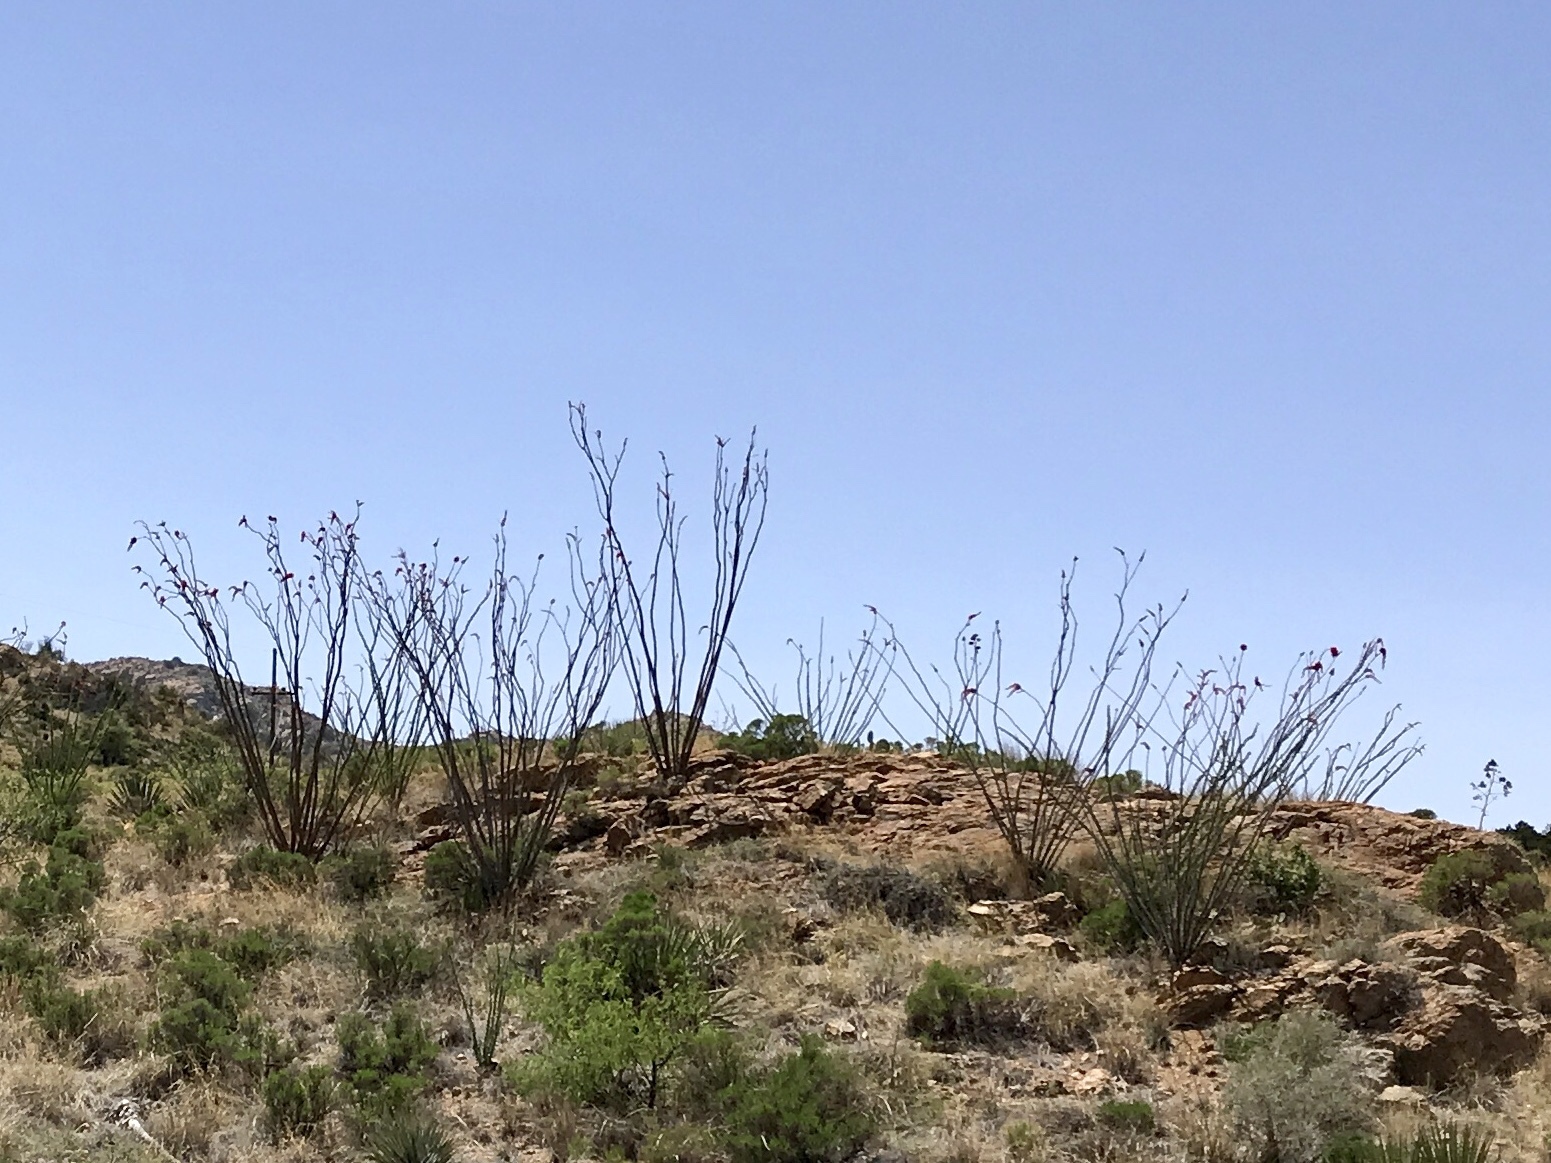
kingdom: Plantae
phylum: Tracheophyta
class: Magnoliopsida
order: Ericales
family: Fouquieriaceae
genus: Fouquieria
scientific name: Fouquieria splendens
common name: Vine-cactus
